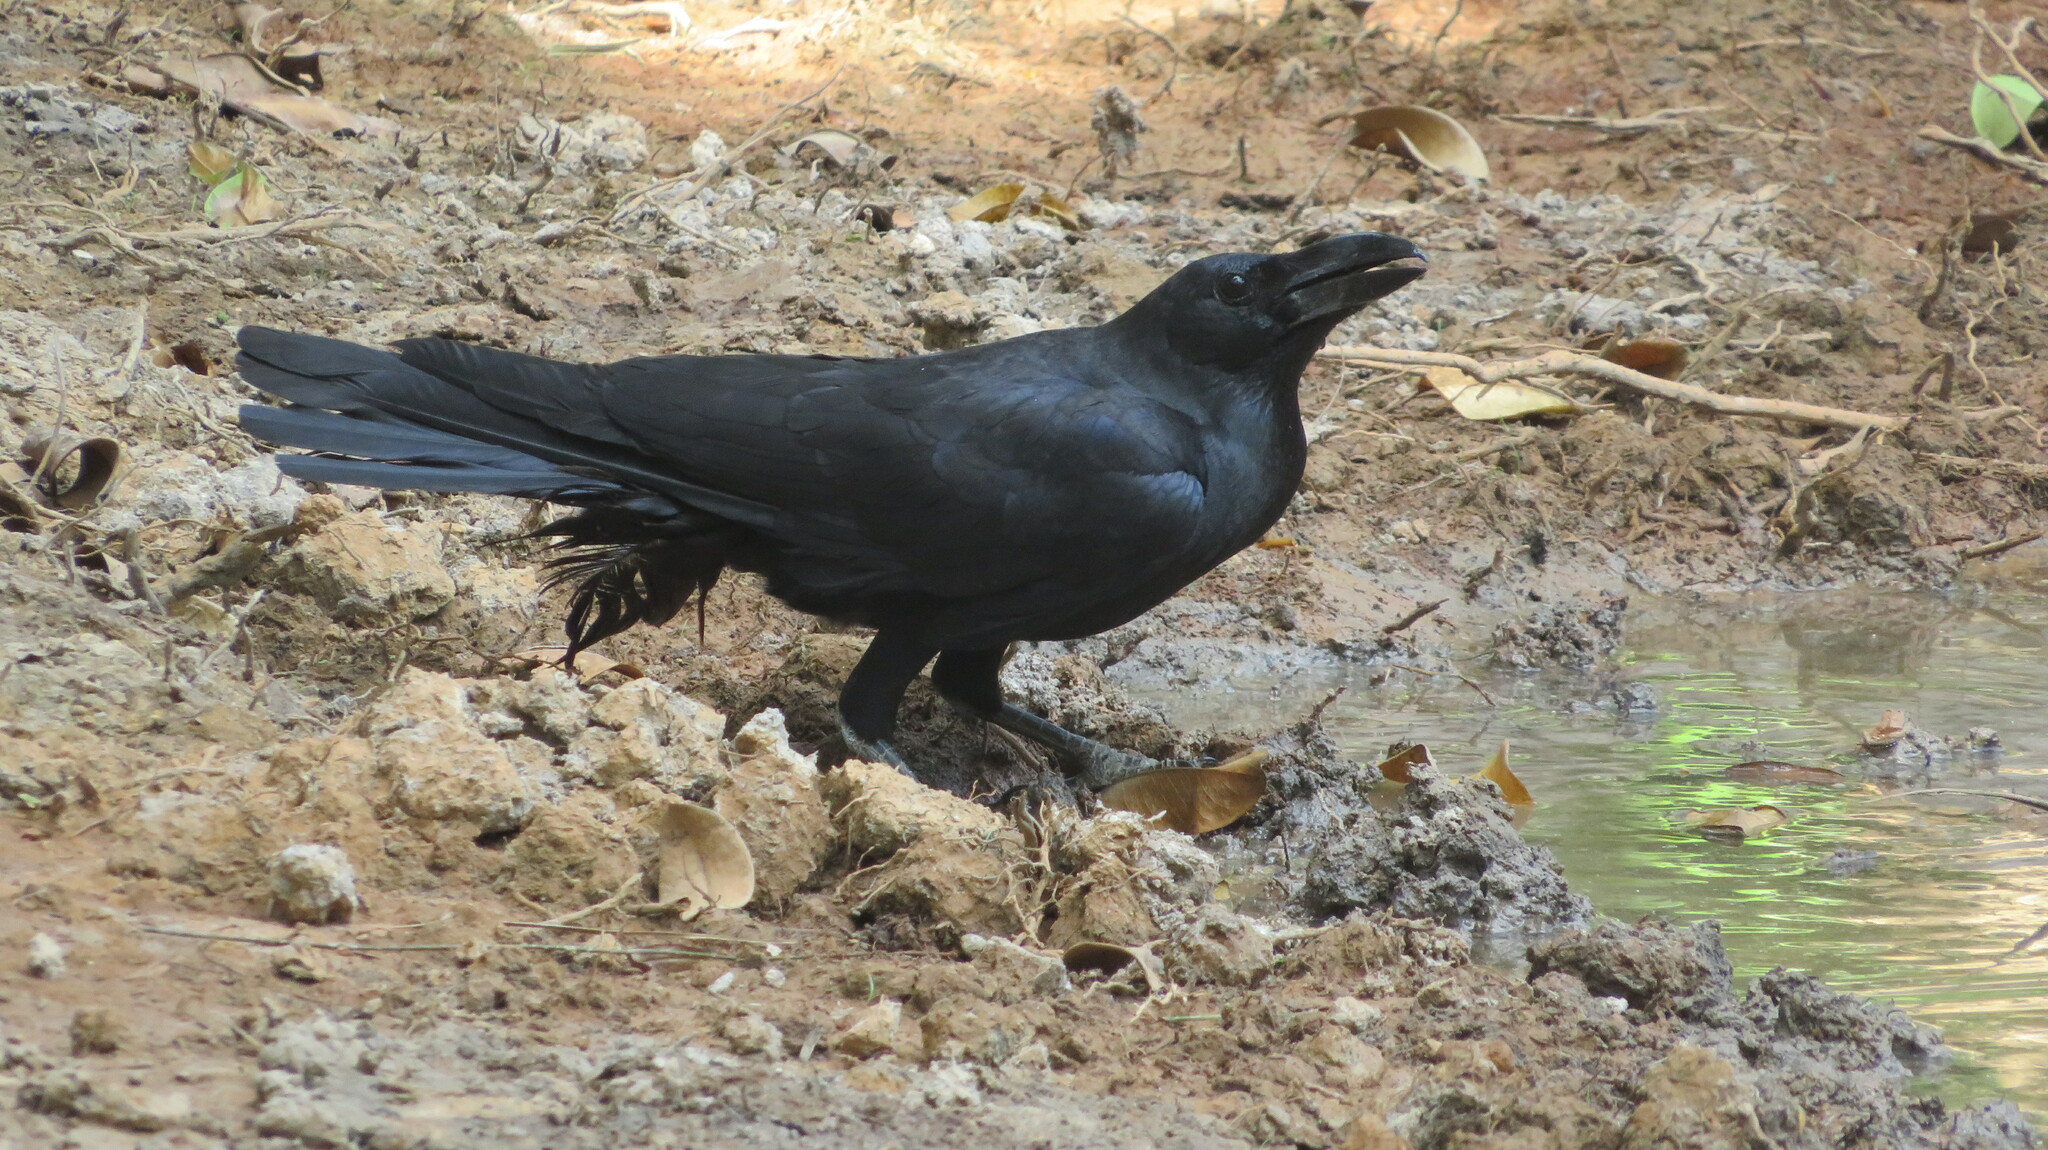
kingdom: Animalia
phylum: Chordata
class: Aves
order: Passeriformes
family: Corvidae
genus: Corvus
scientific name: Corvus macrorhynchos
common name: Large-billed crow
